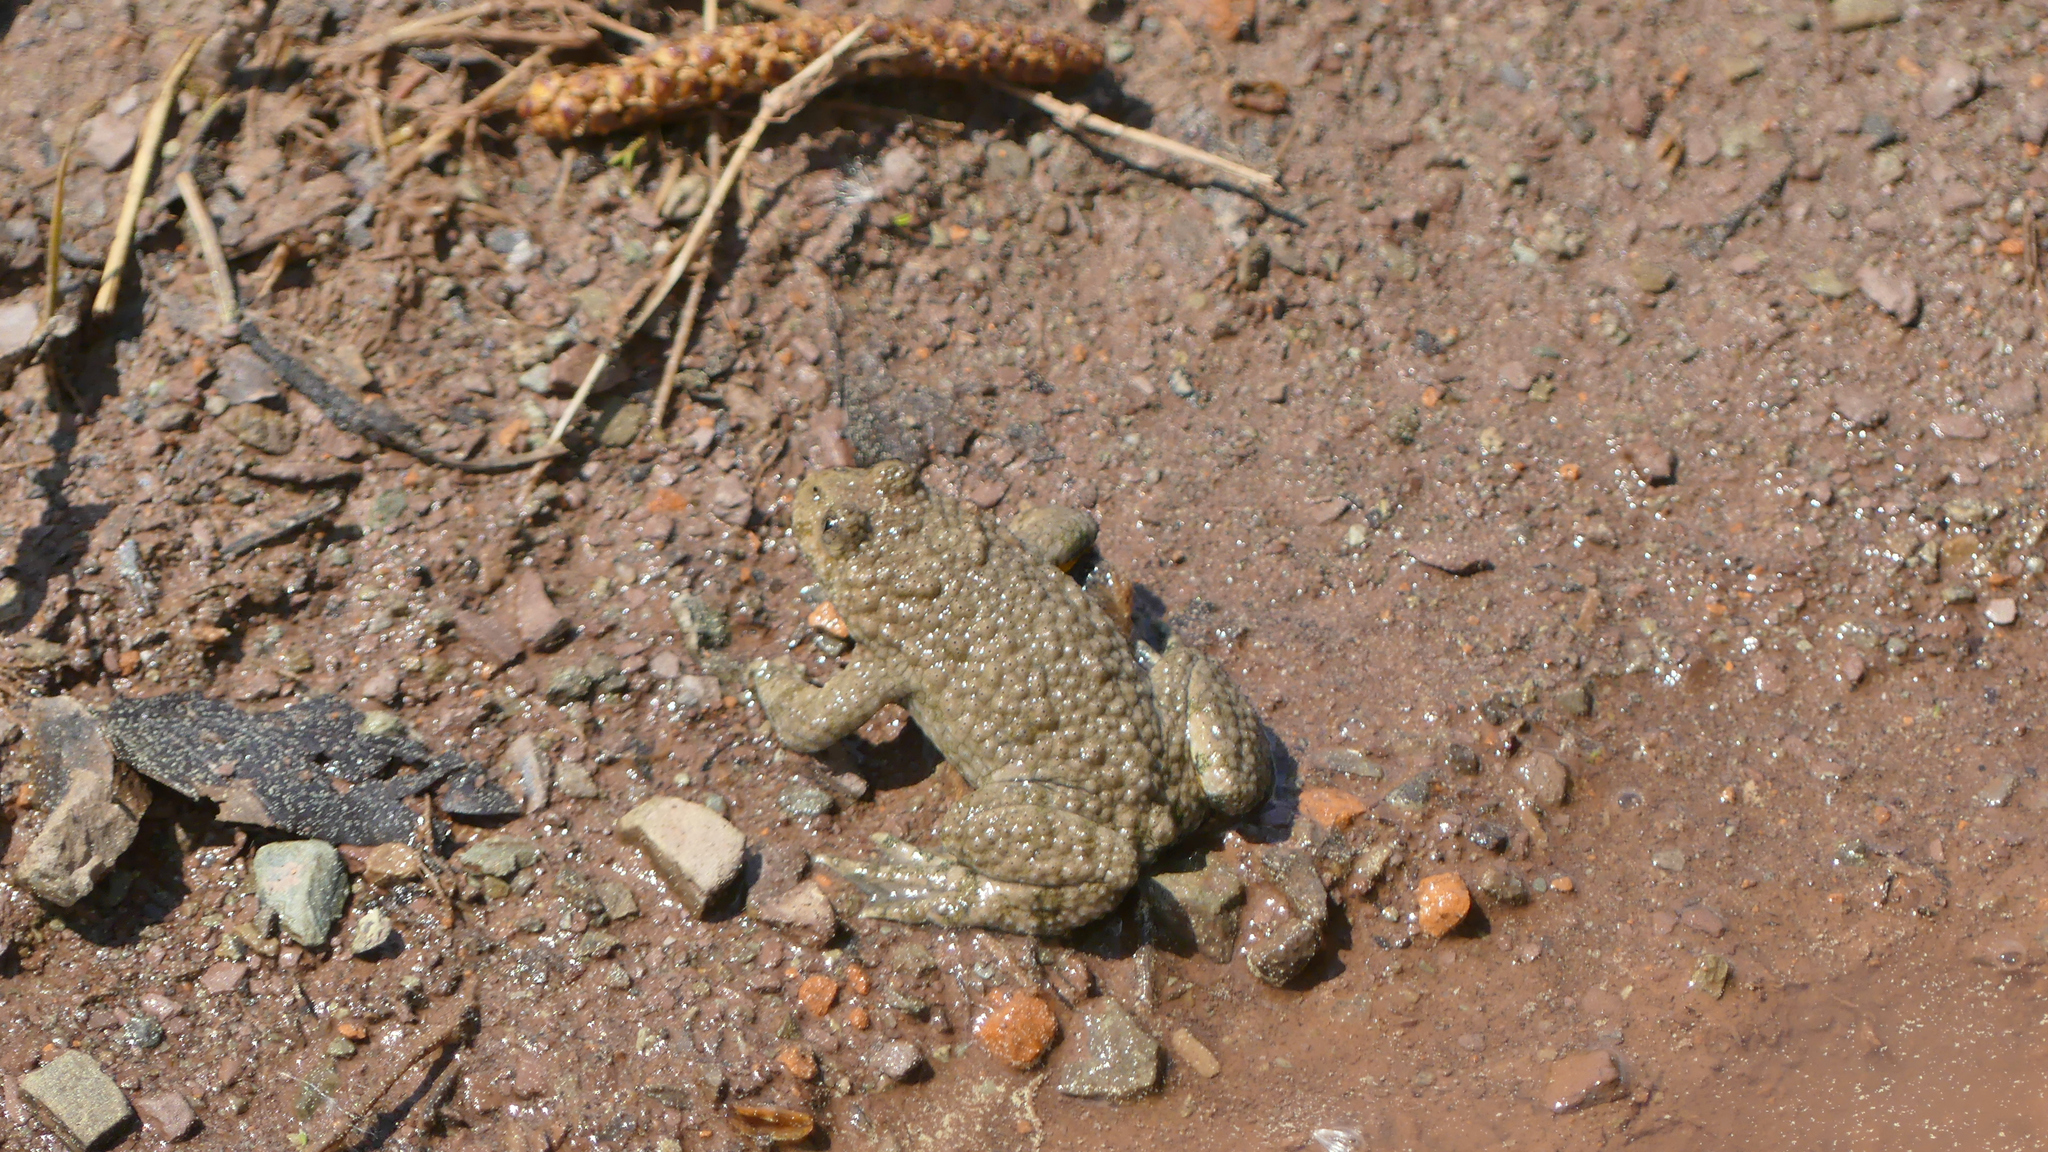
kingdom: Animalia
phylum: Chordata
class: Amphibia
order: Anura
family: Bombinatoridae
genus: Bombina
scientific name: Bombina variegata
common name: Yellow-bellied toad
